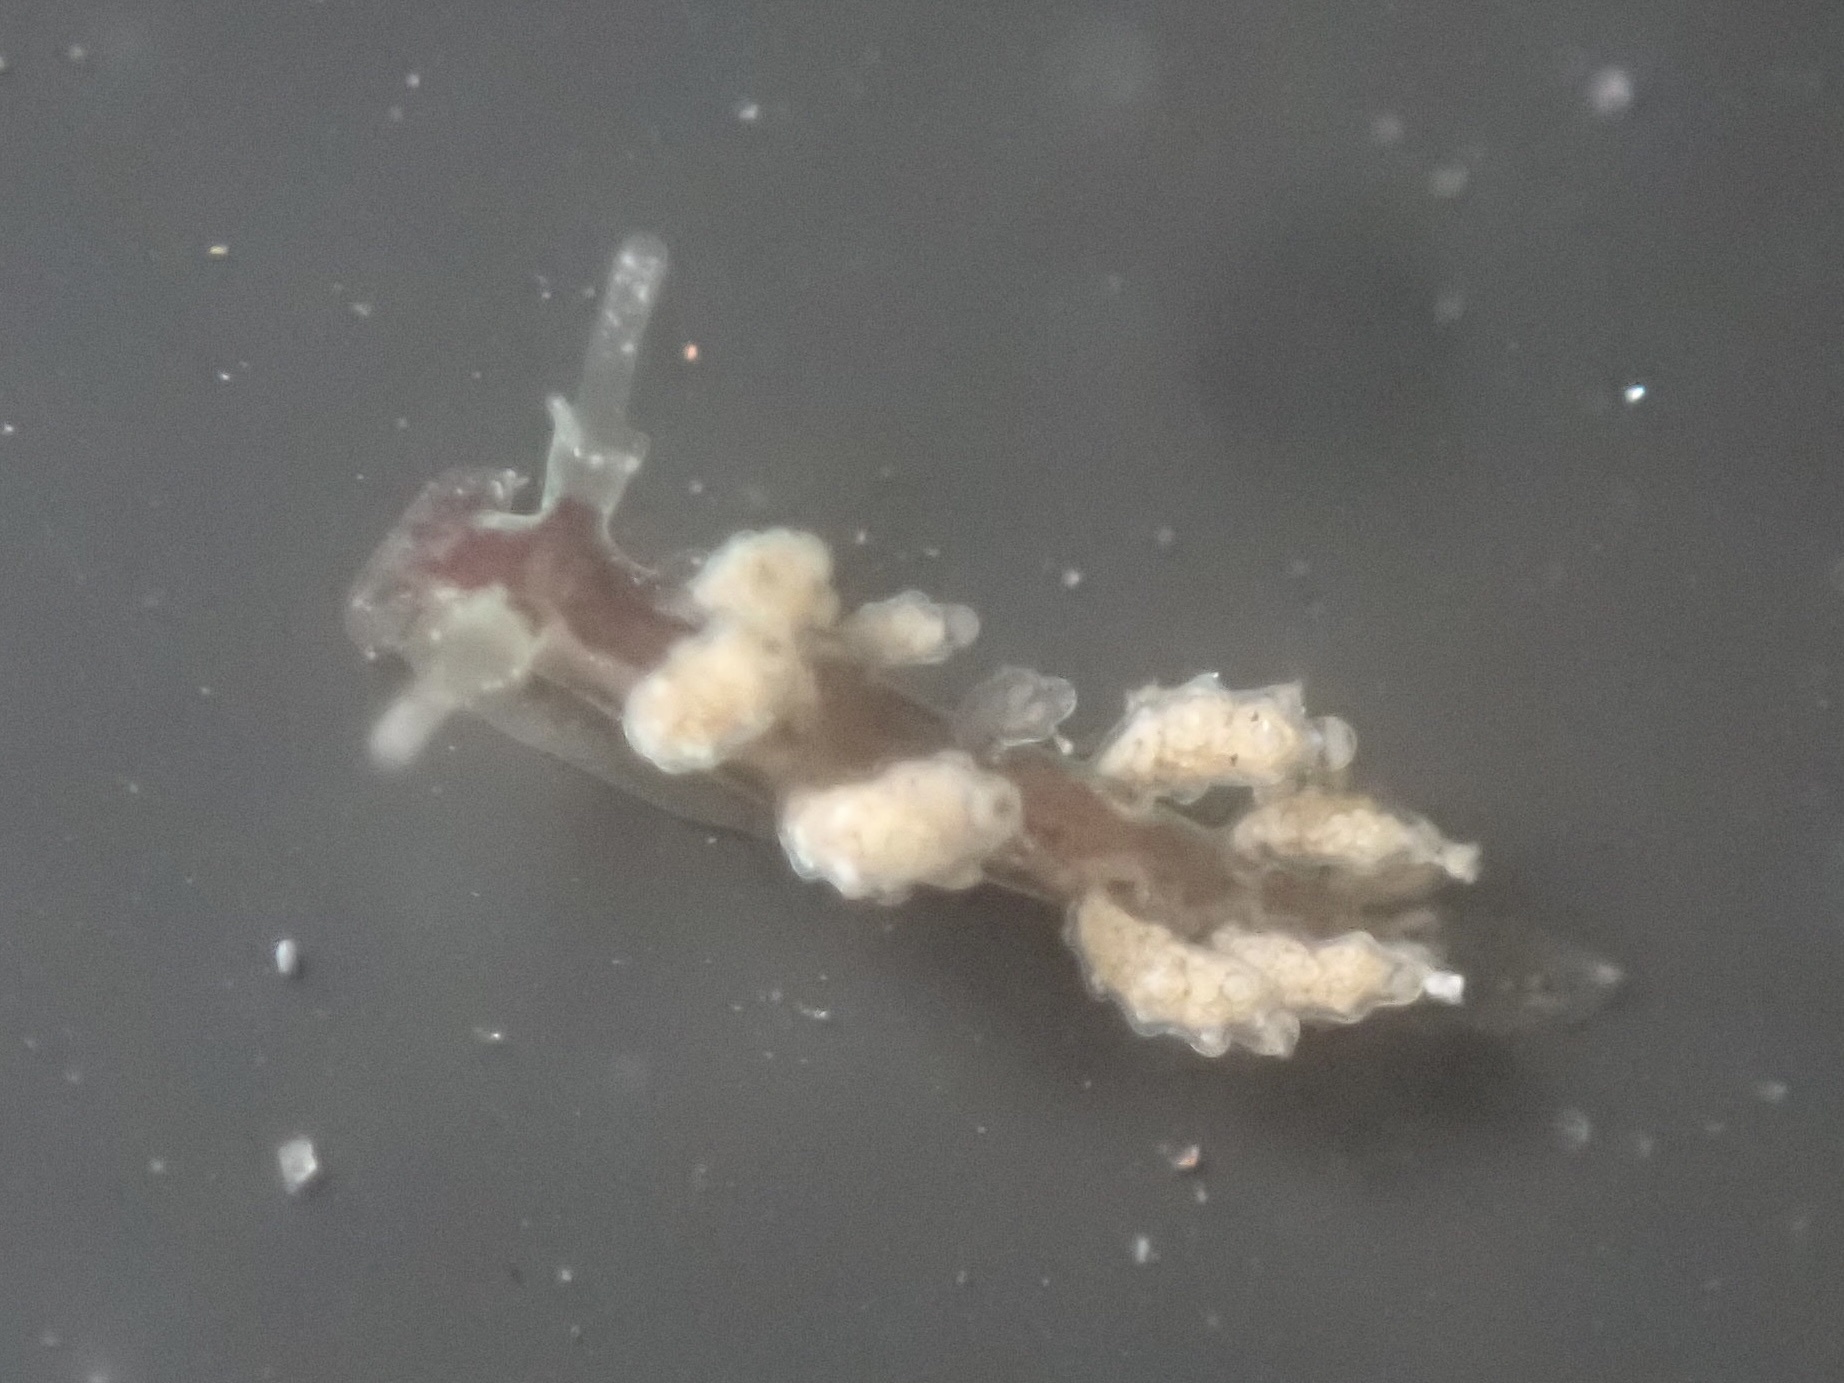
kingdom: Animalia
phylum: Mollusca
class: Gastropoda
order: Nudibranchia
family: Dotidae
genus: Doto
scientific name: Doto lancei
